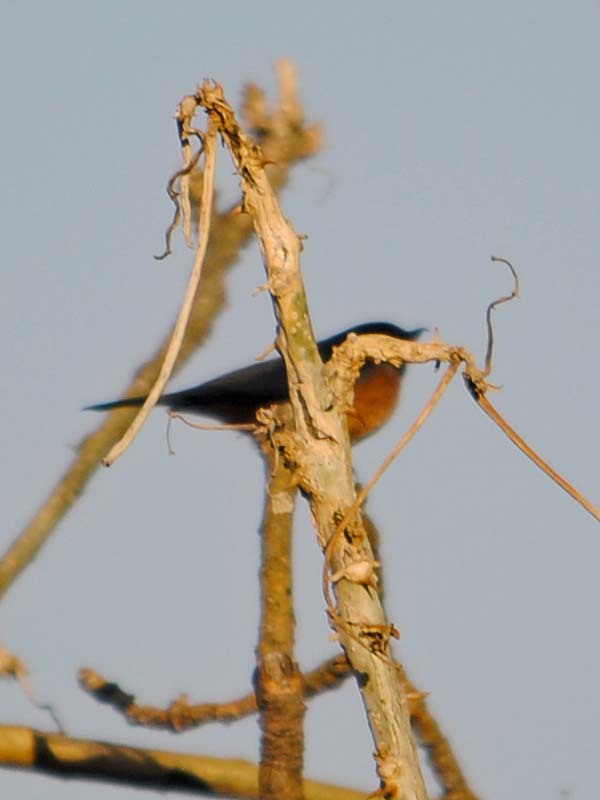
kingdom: Animalia
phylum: Chordata
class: Aves
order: Passeriformes
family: Thraupidae
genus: Diglossa
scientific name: Diglossa baritula
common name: Cinnamon-bellied flowerpiercer
